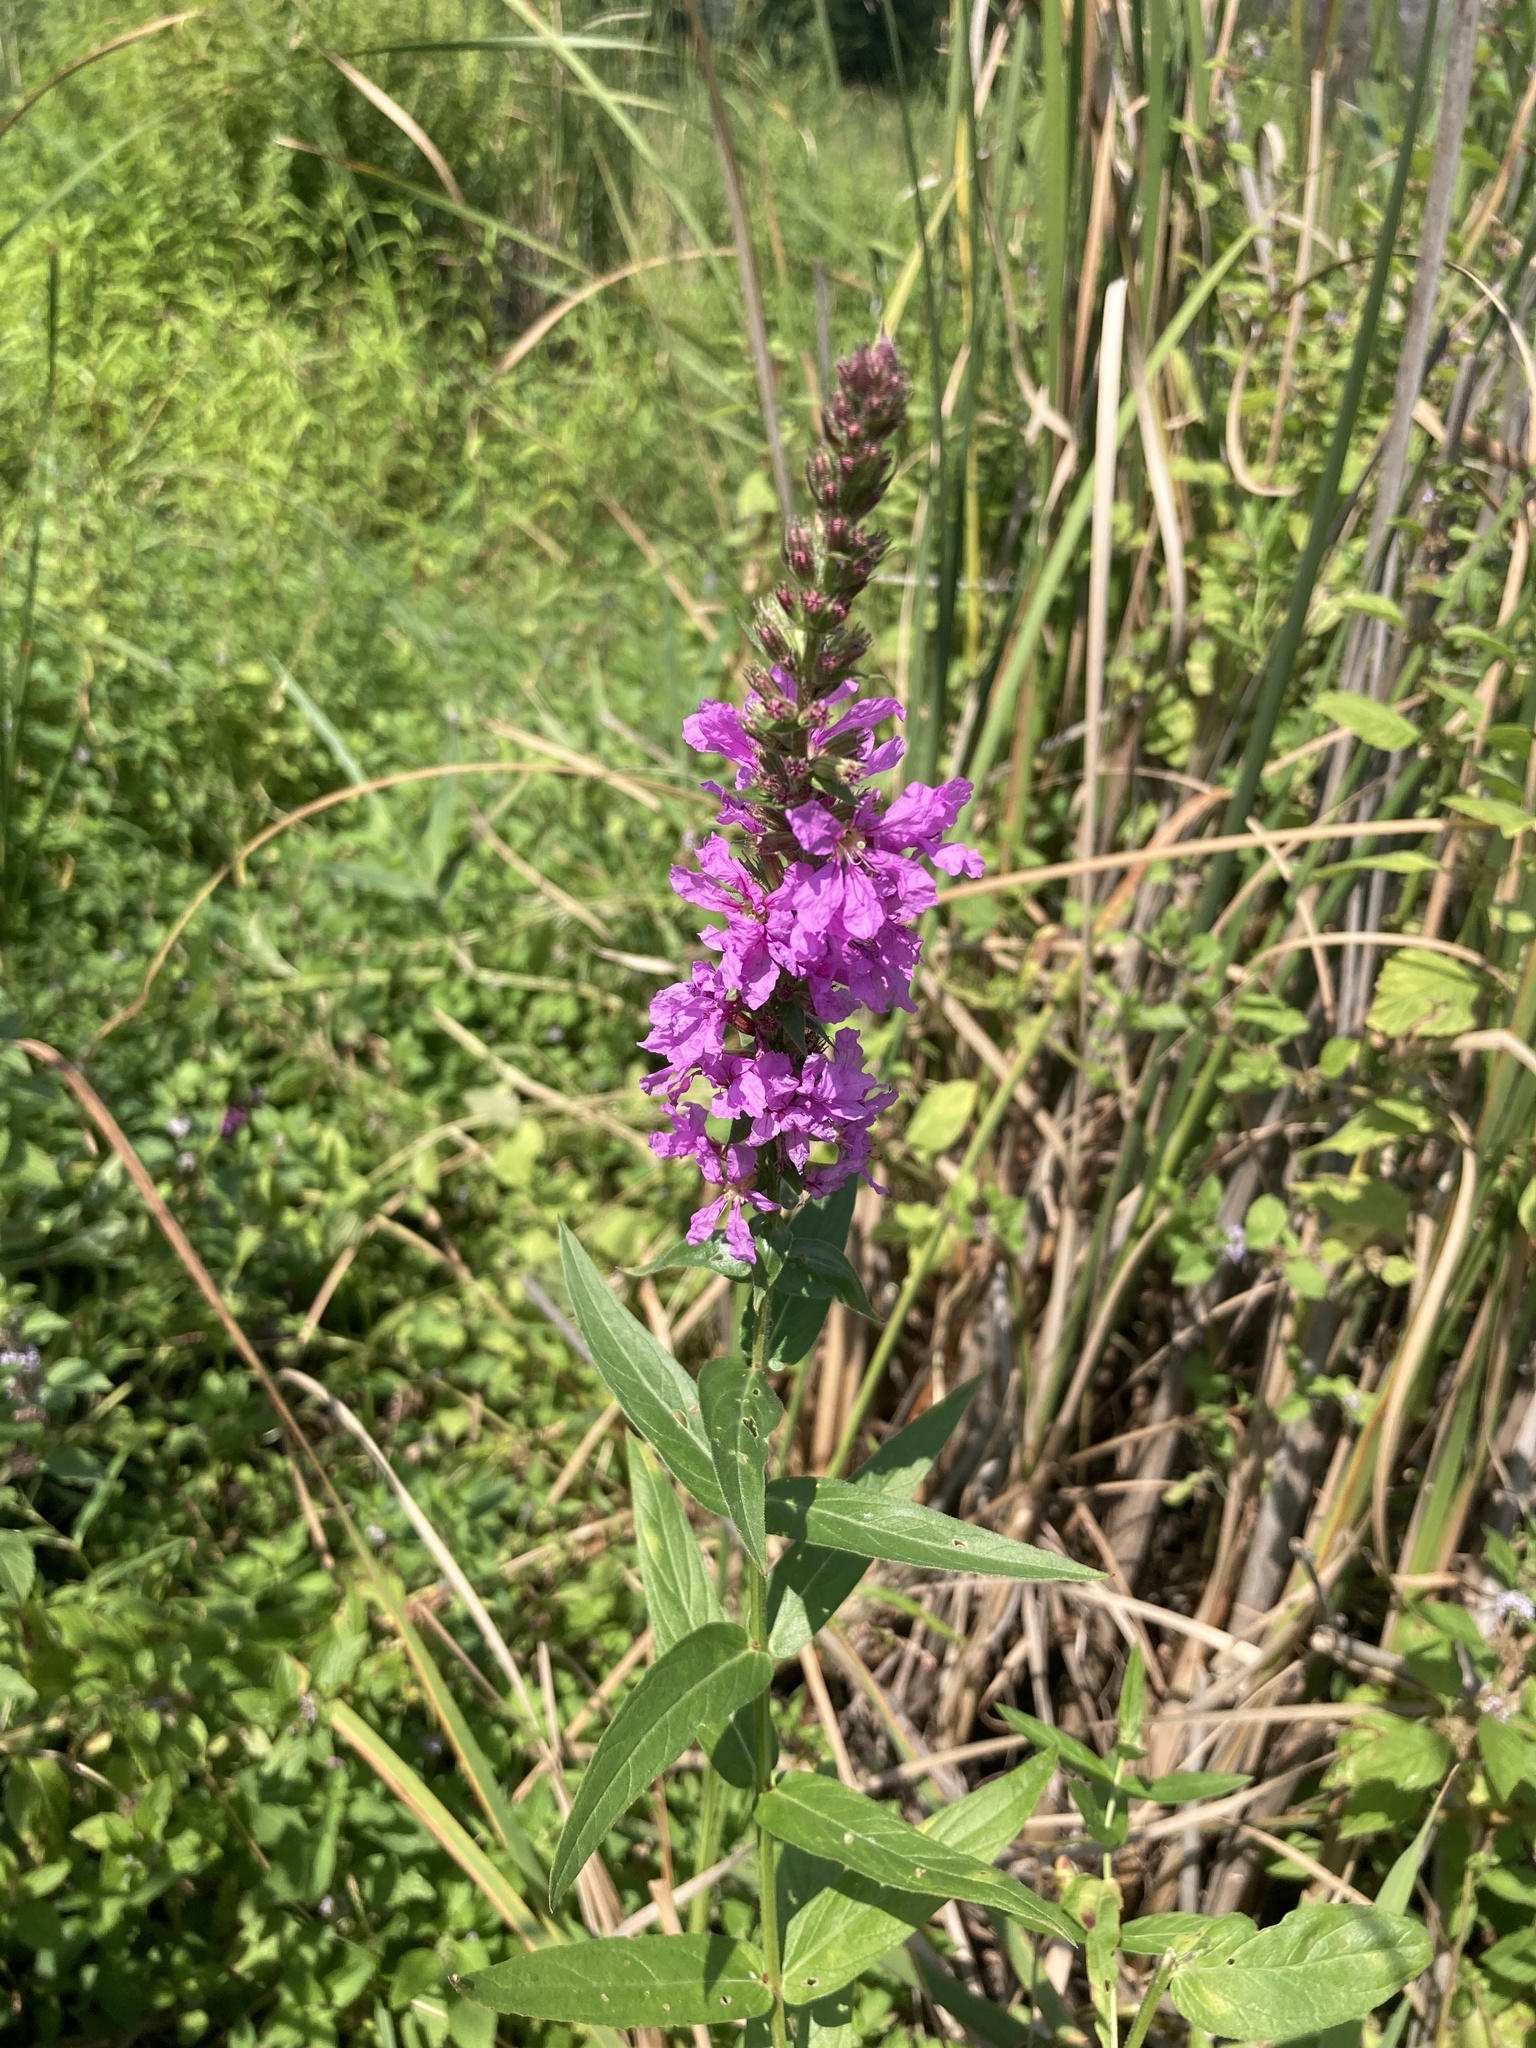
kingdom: Plantae
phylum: Tracheophyta
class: Magnoliopsida
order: Myrtales
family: Lythraceae
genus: Lythrum
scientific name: Lythrum salicaria
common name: Purple loosestrife
